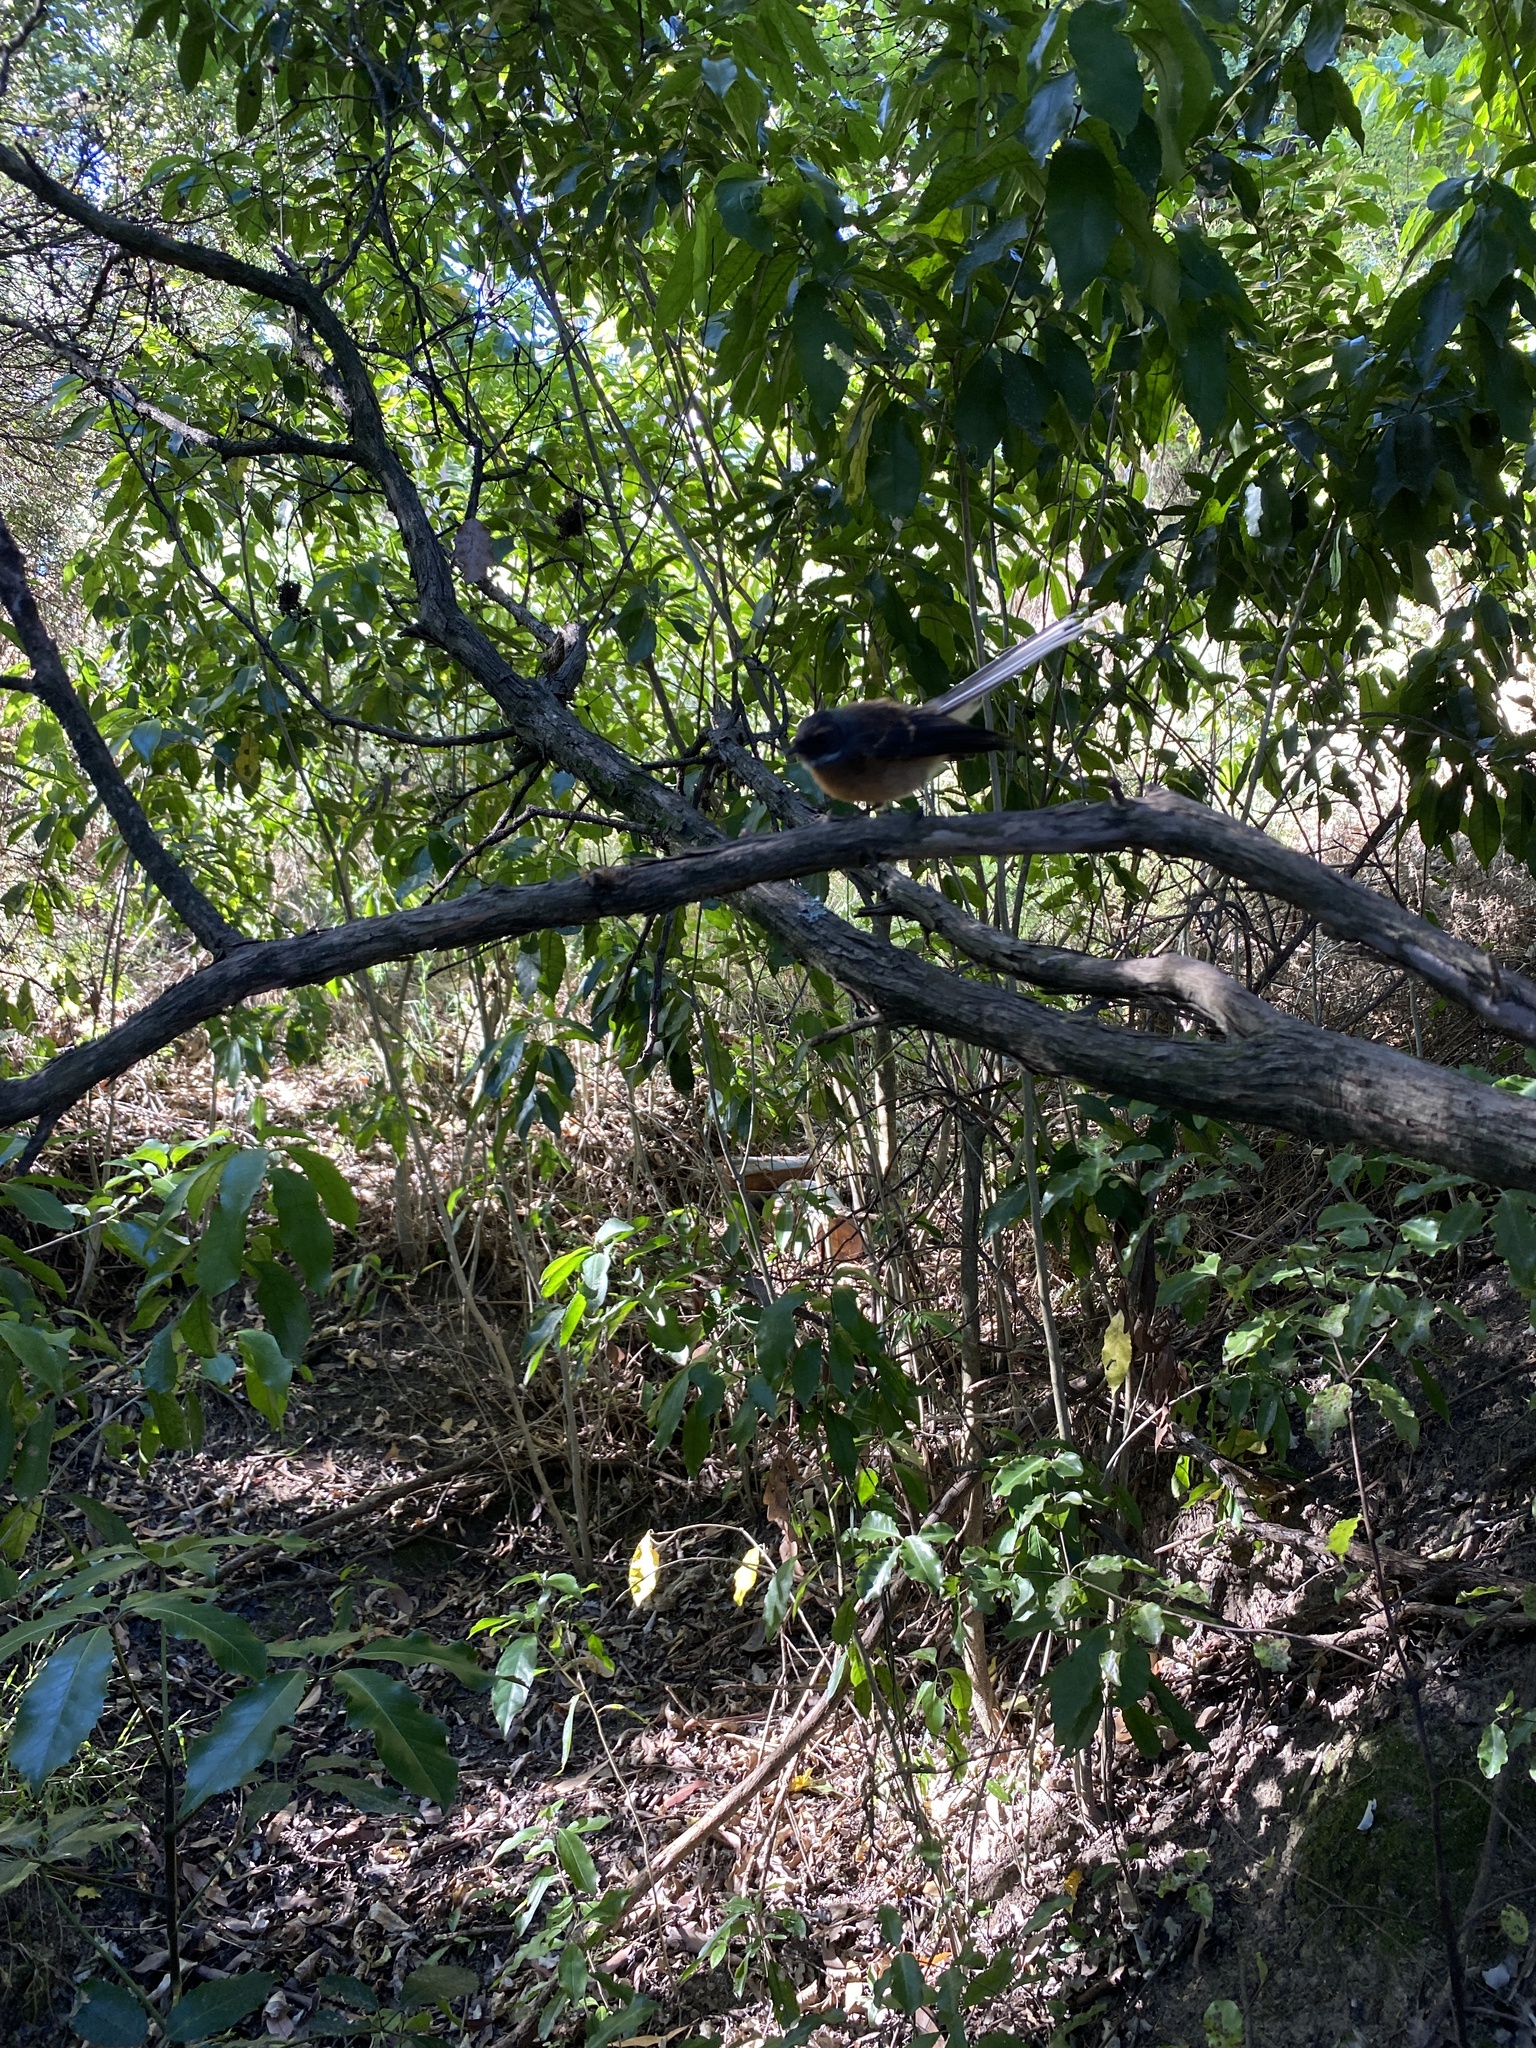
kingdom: Animalia
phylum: Chordata
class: Aves
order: Passeriformes
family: Rhipiduridae
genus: Rhipidura
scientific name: Rhipidura fuliginosa
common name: New zealand fantail
